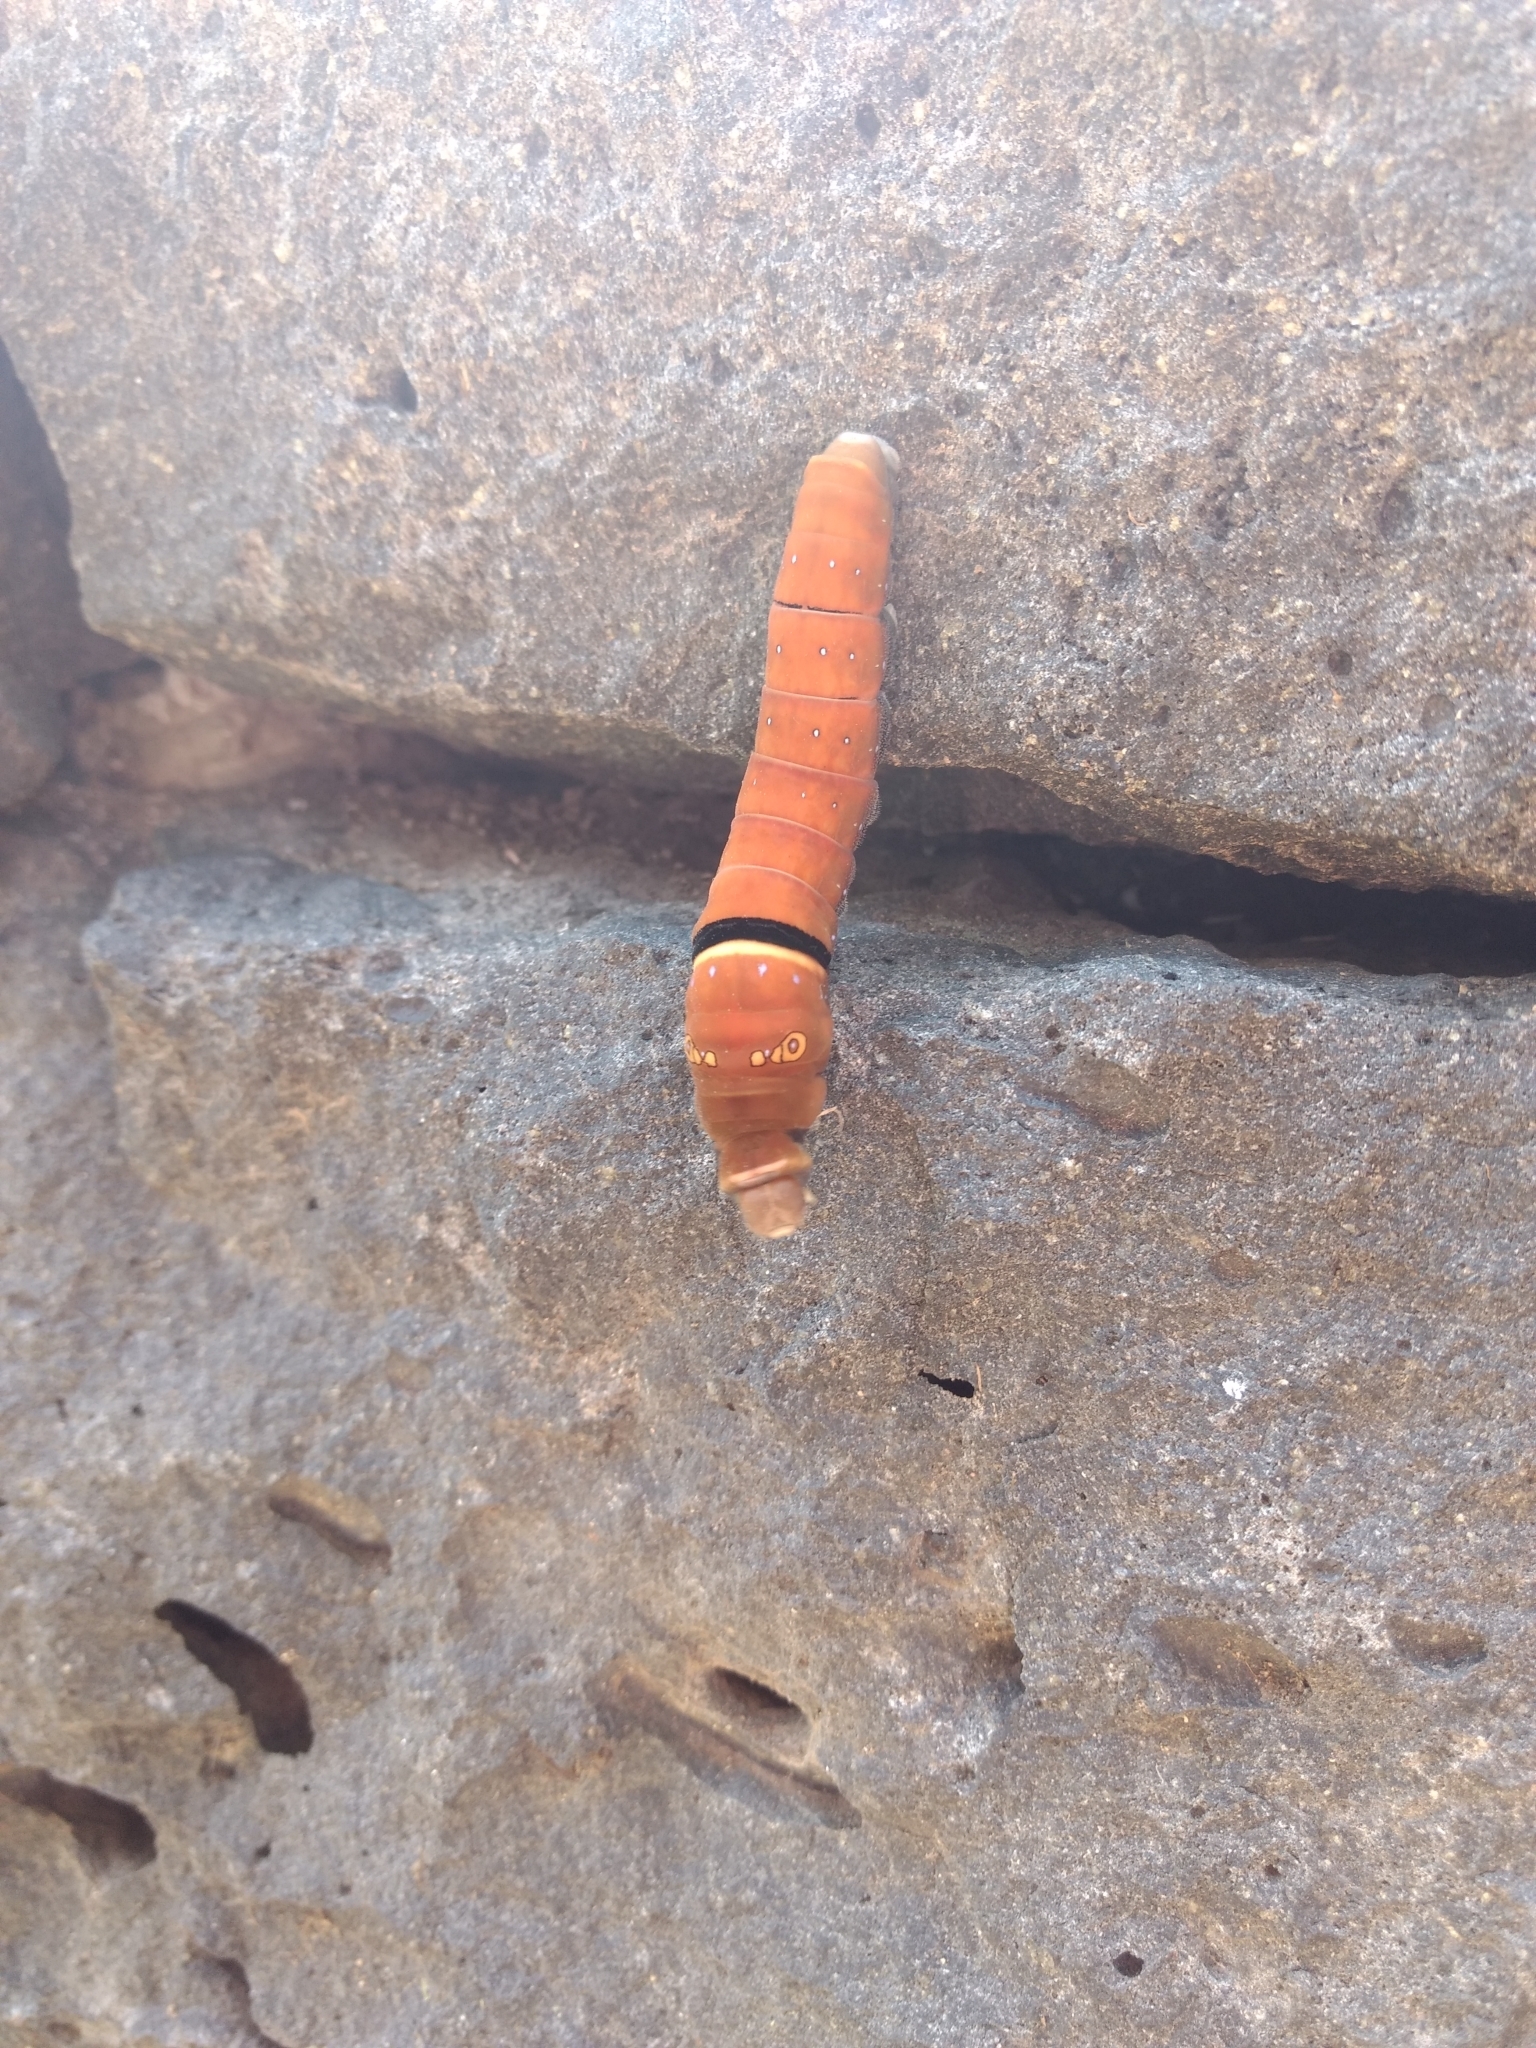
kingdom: Animalia
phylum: Arthropoda
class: Insecta
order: Lepidoptera
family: Papilionidae
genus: Papilio
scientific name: Papilio multicaudata
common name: Two-tailed tiger swallowtail
